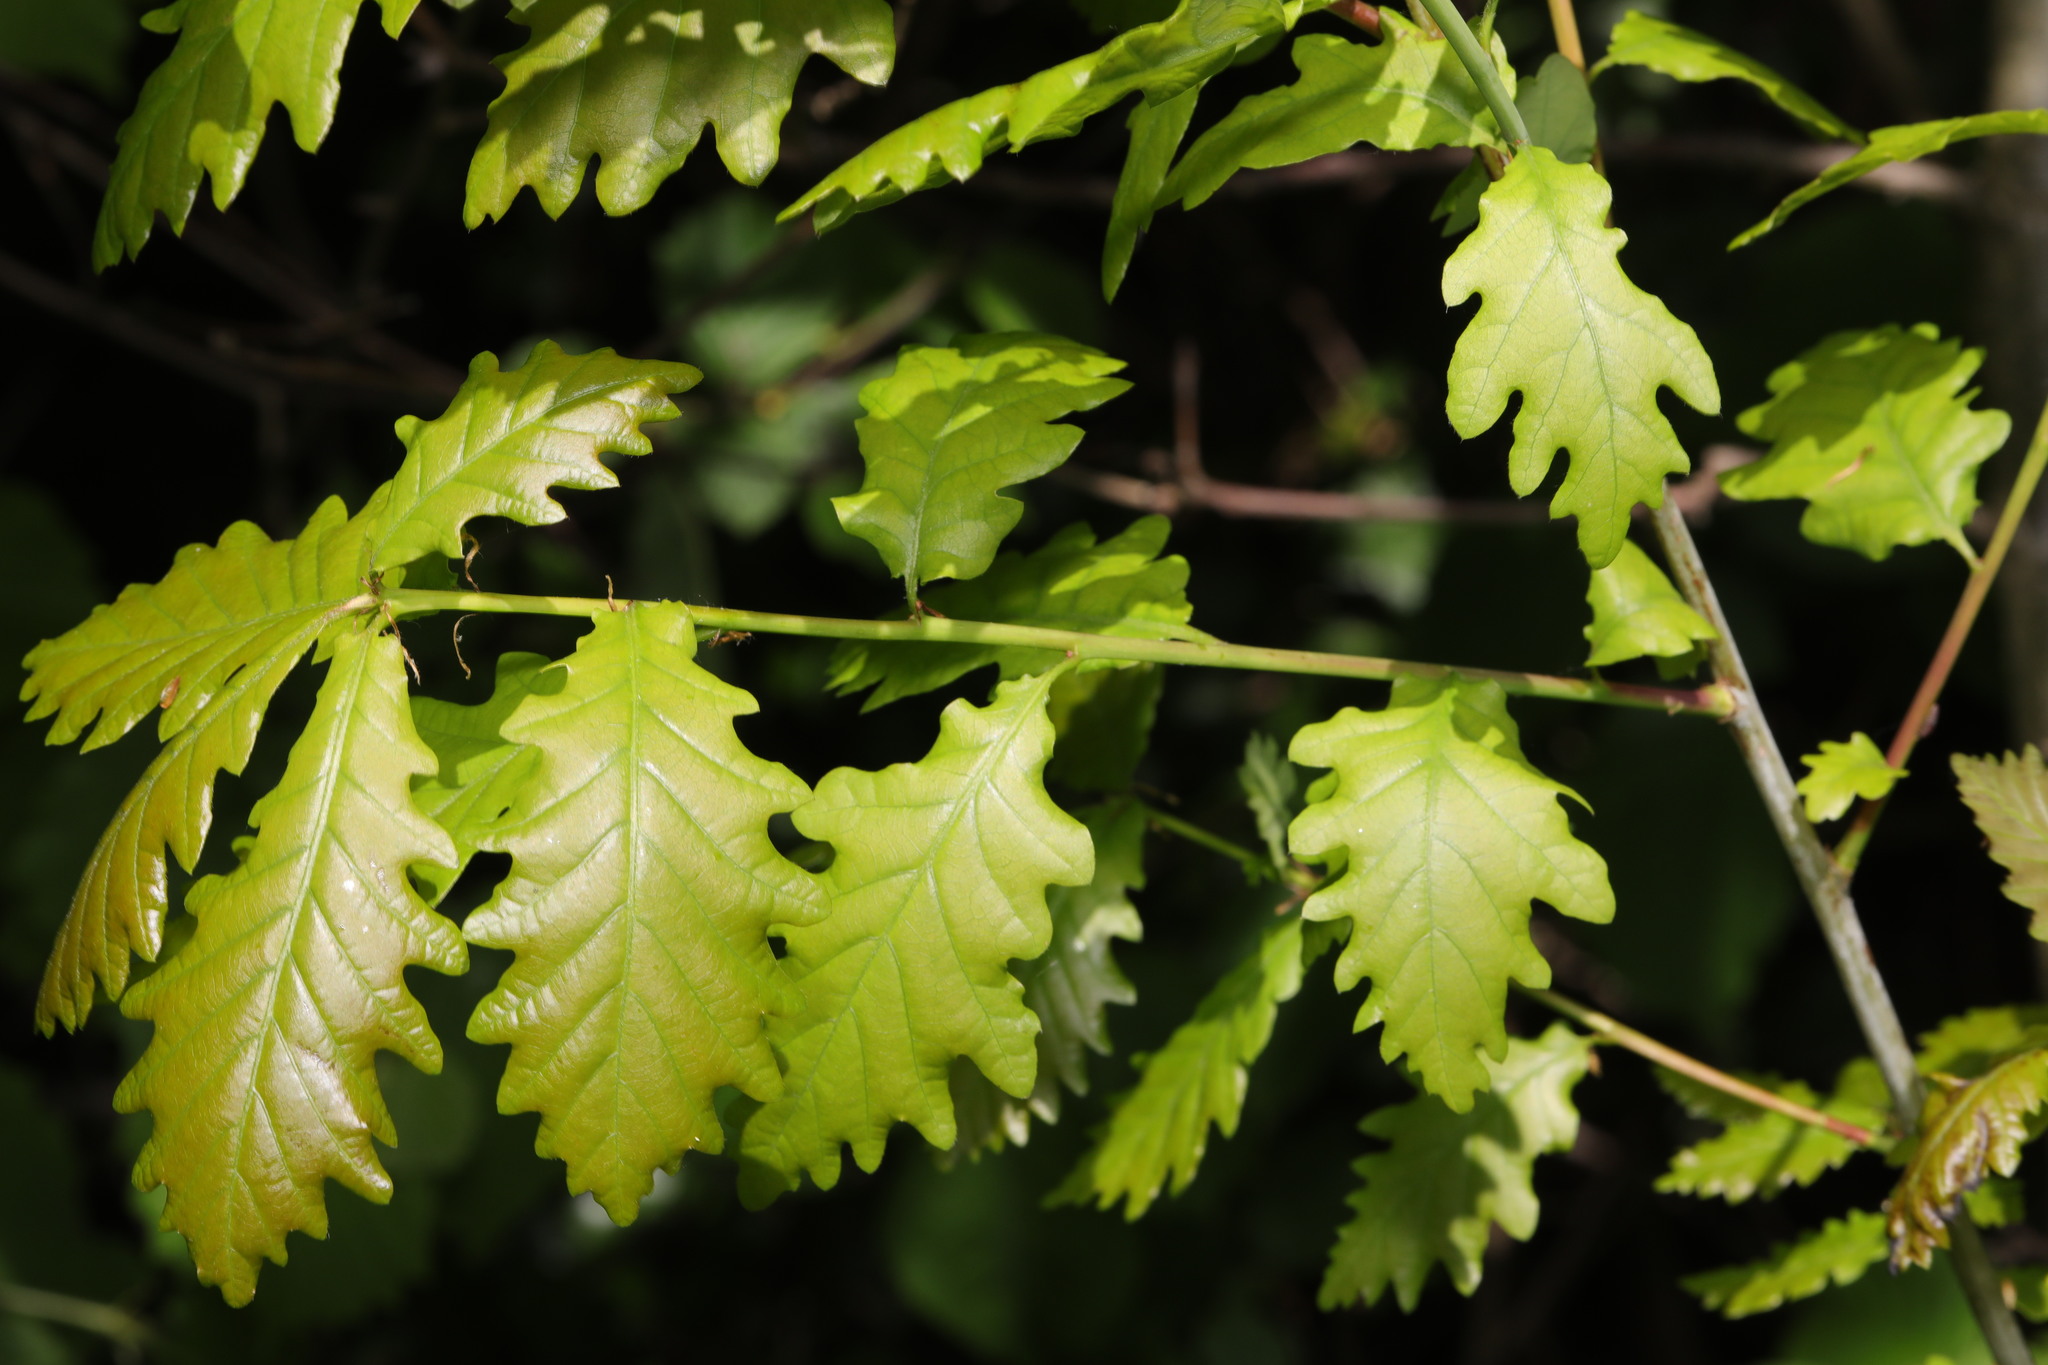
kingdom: Plantae
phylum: Tracheophyta
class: Magnoliopsida
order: Fagales
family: Fagaceae
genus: Quercus
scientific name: Quercus cerris
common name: Turkey oak
